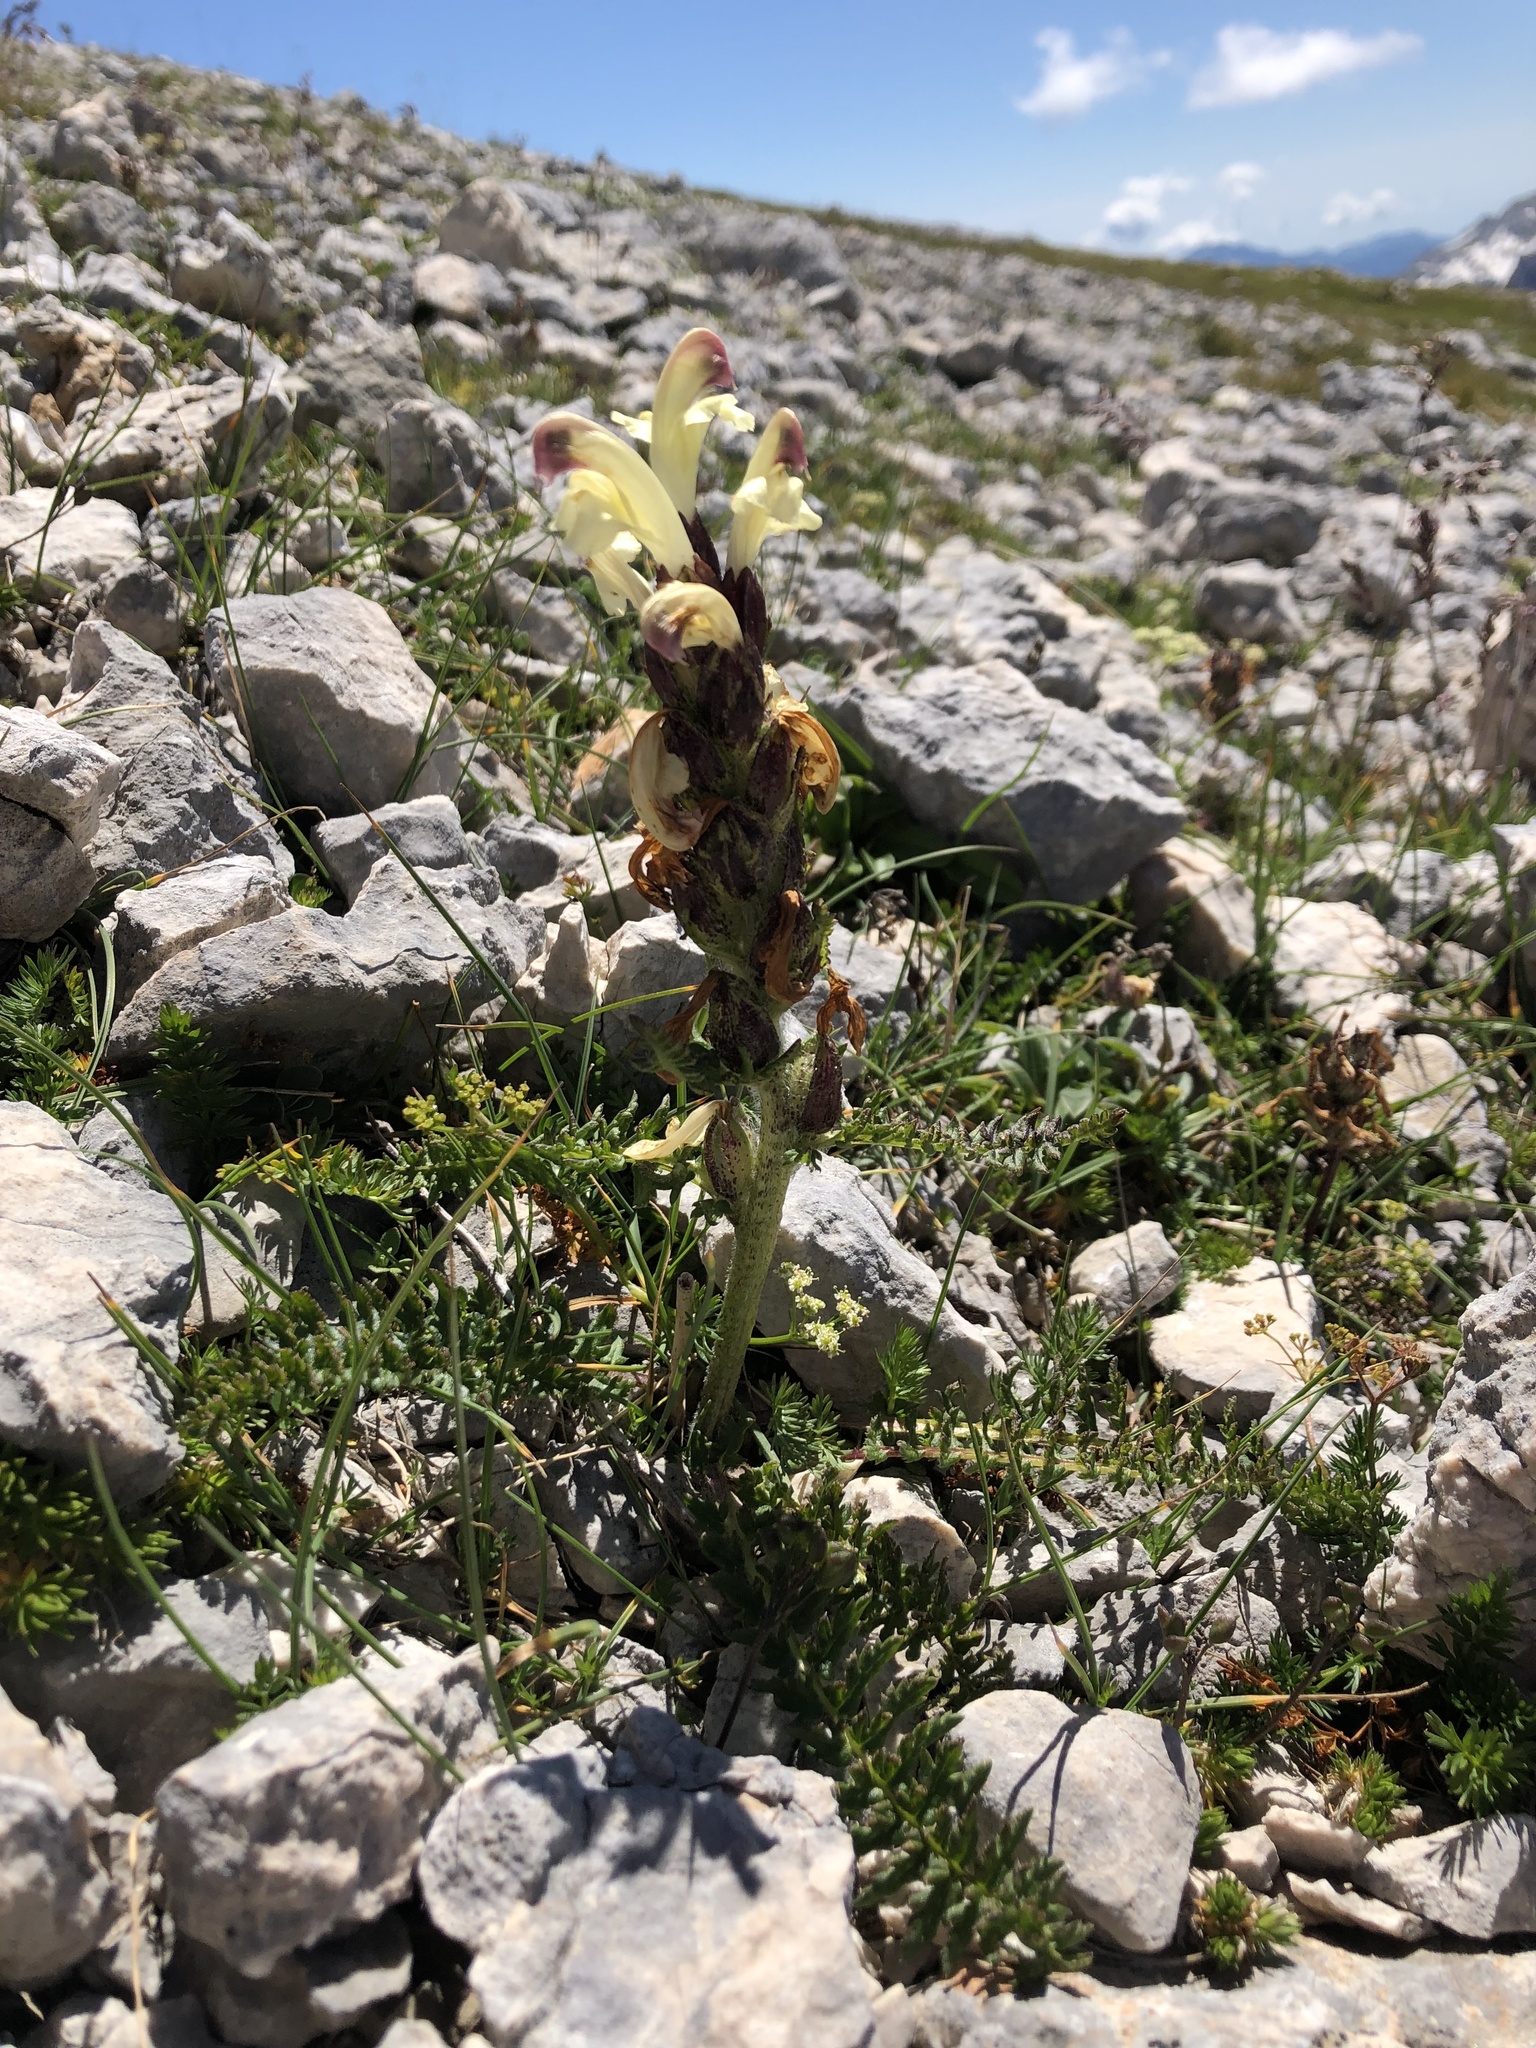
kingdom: Plantae
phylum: Tracheophyta
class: Magnoliopsida
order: Lamiales
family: Orobanchaceae
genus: Pedicularis
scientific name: Pedicularis chroorrhyncha
